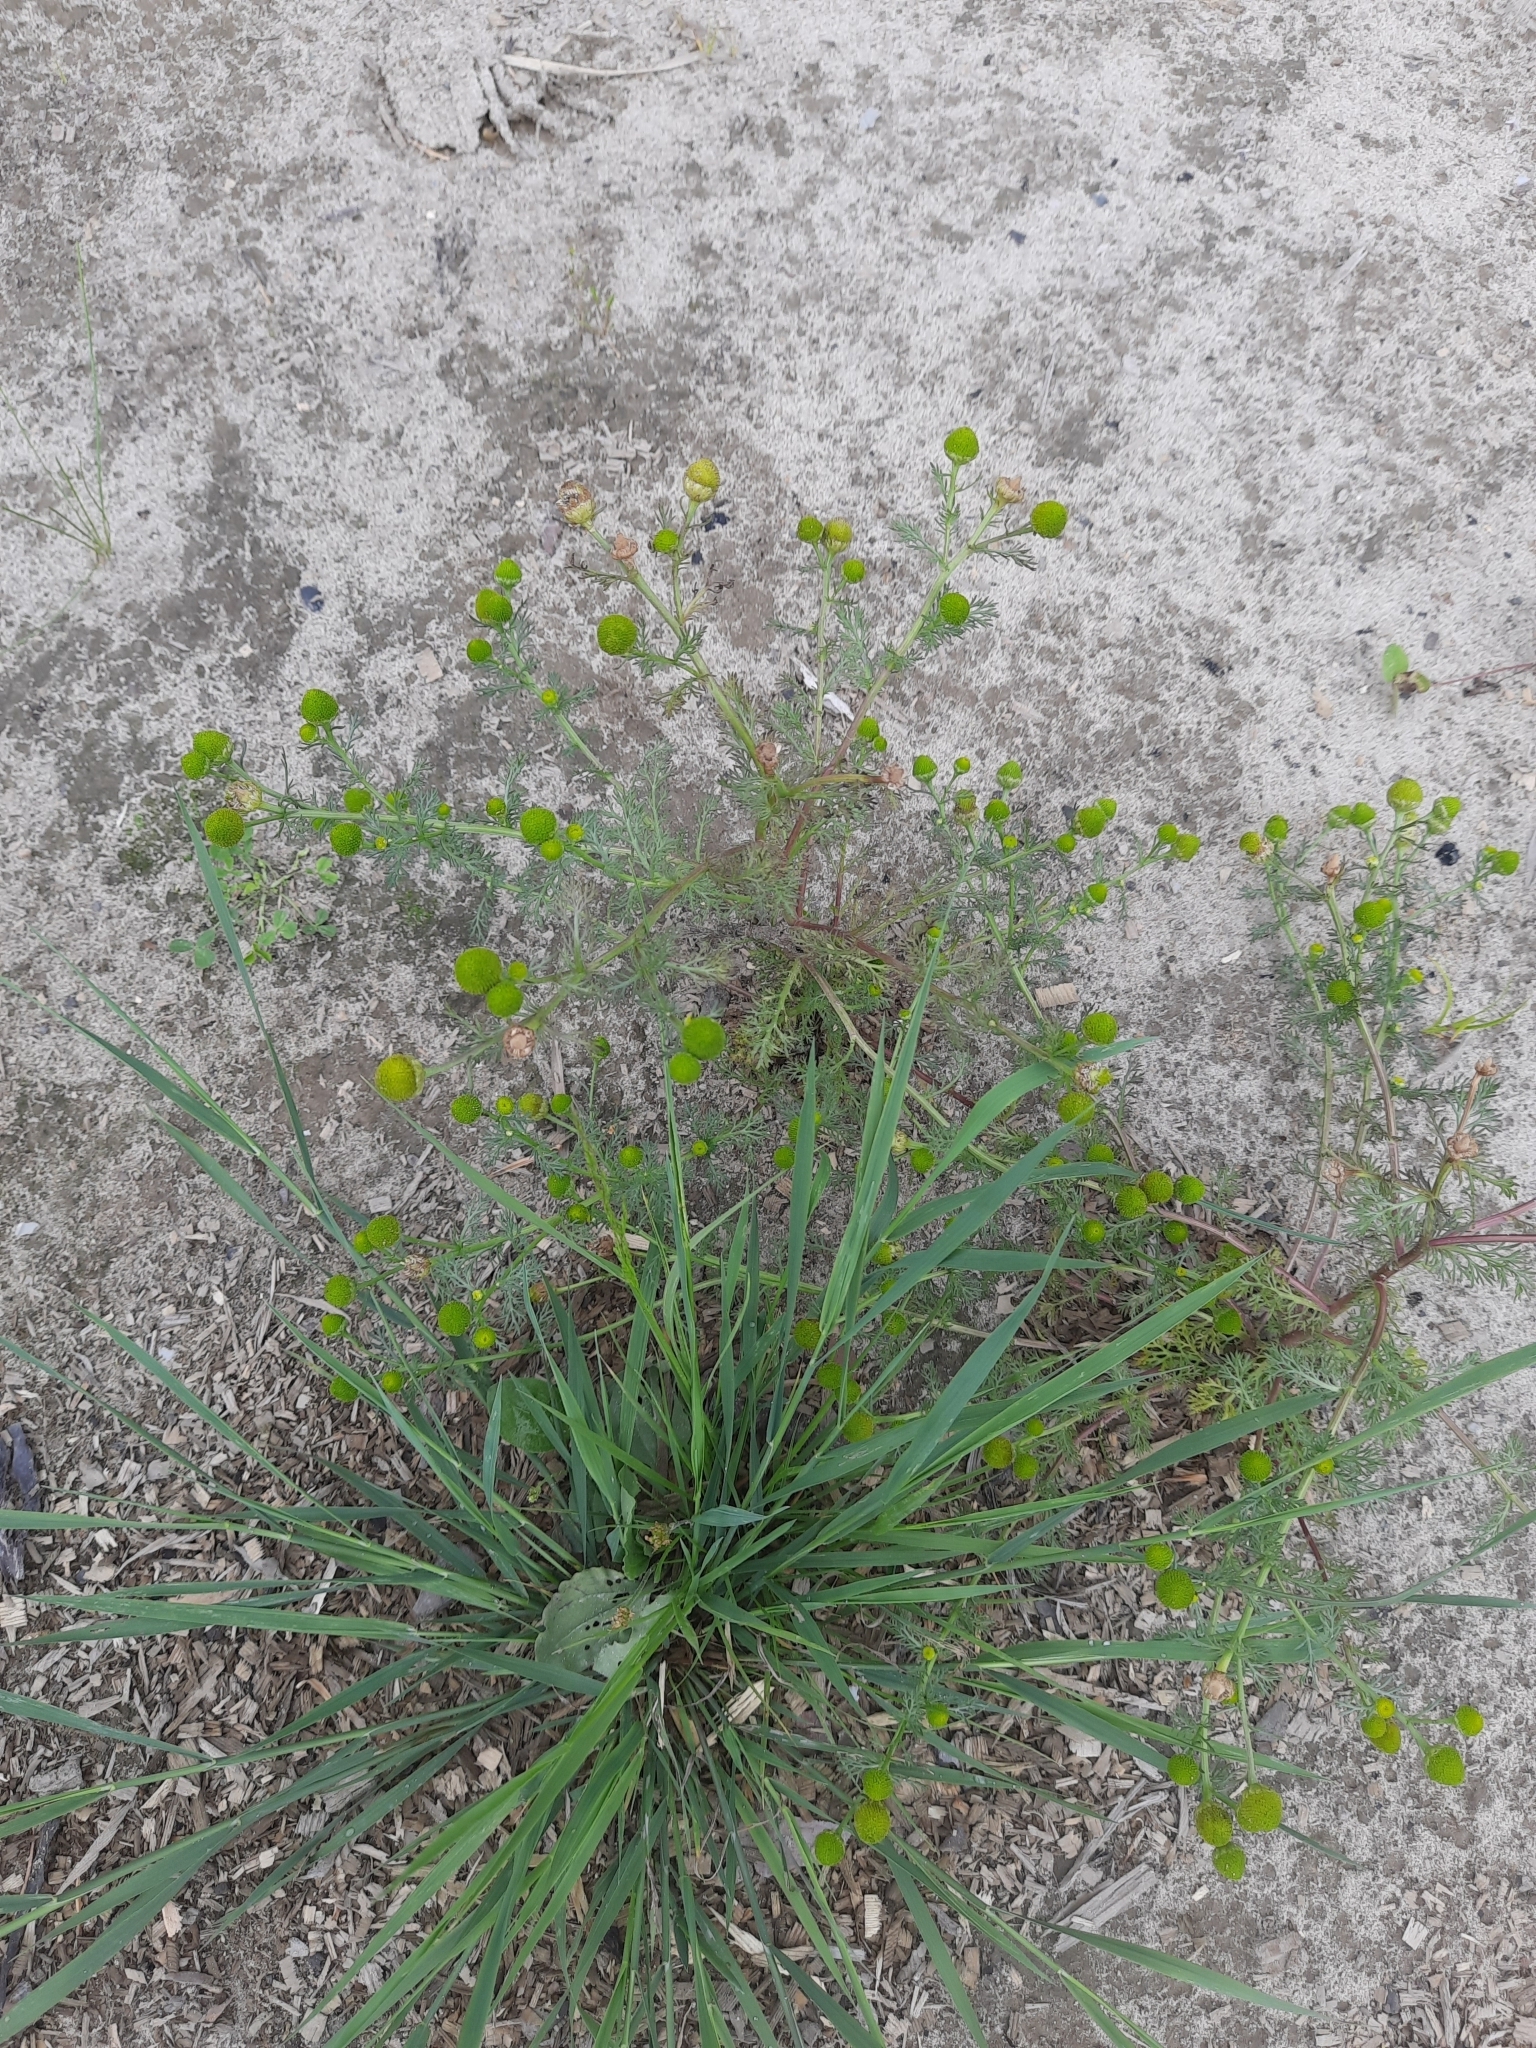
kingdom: Plantae
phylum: Tracheophyta
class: Magnoliopsida
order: Asterales
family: Asteraceae
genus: Matricaria
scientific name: Matricaria discoidea
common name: Disc mayweed
